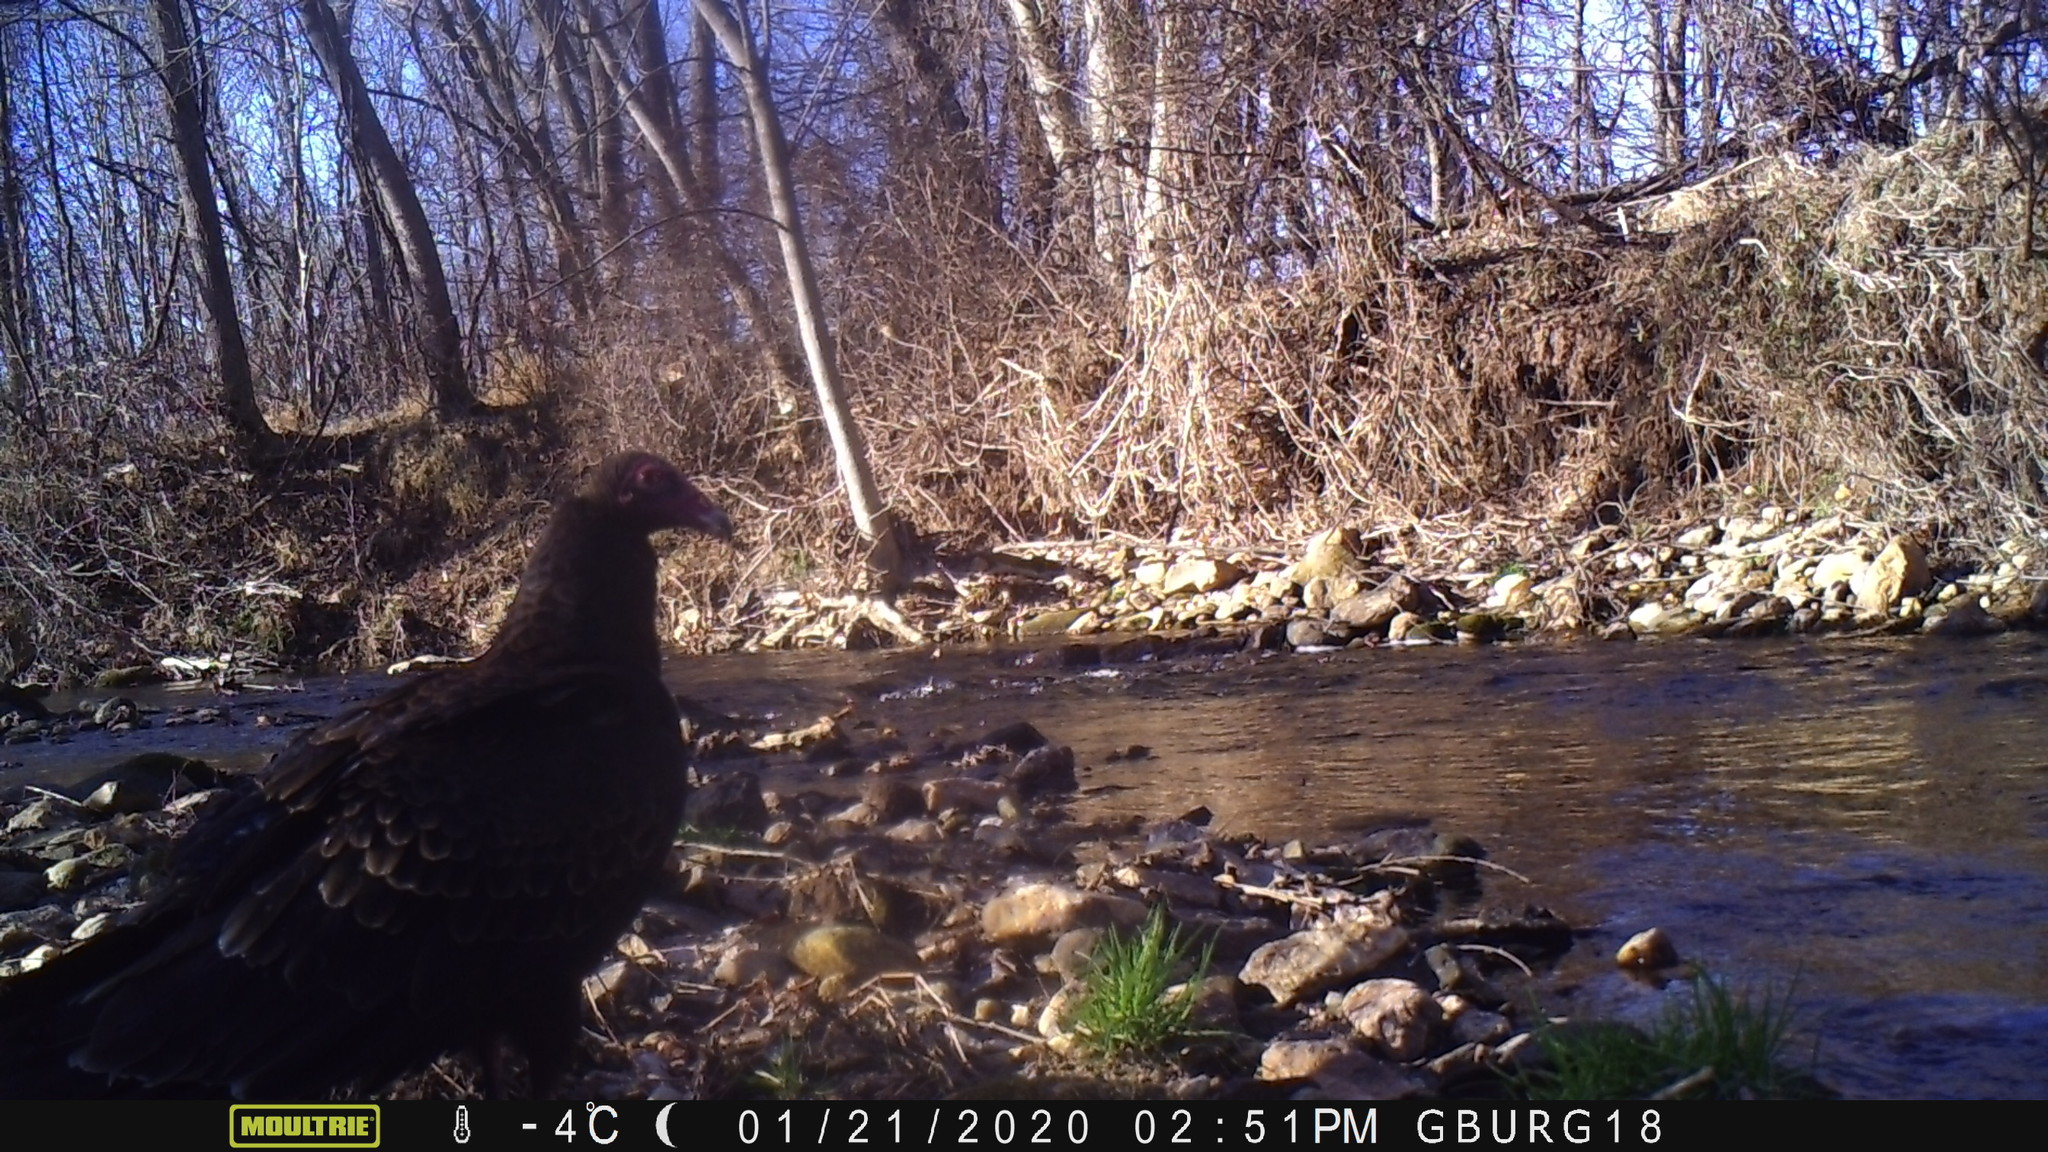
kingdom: Animalia
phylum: Chordata
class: Aves
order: Accipitriformes
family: Cathartidae
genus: Cathartes
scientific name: Cathartes aura
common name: Turkey vulture
